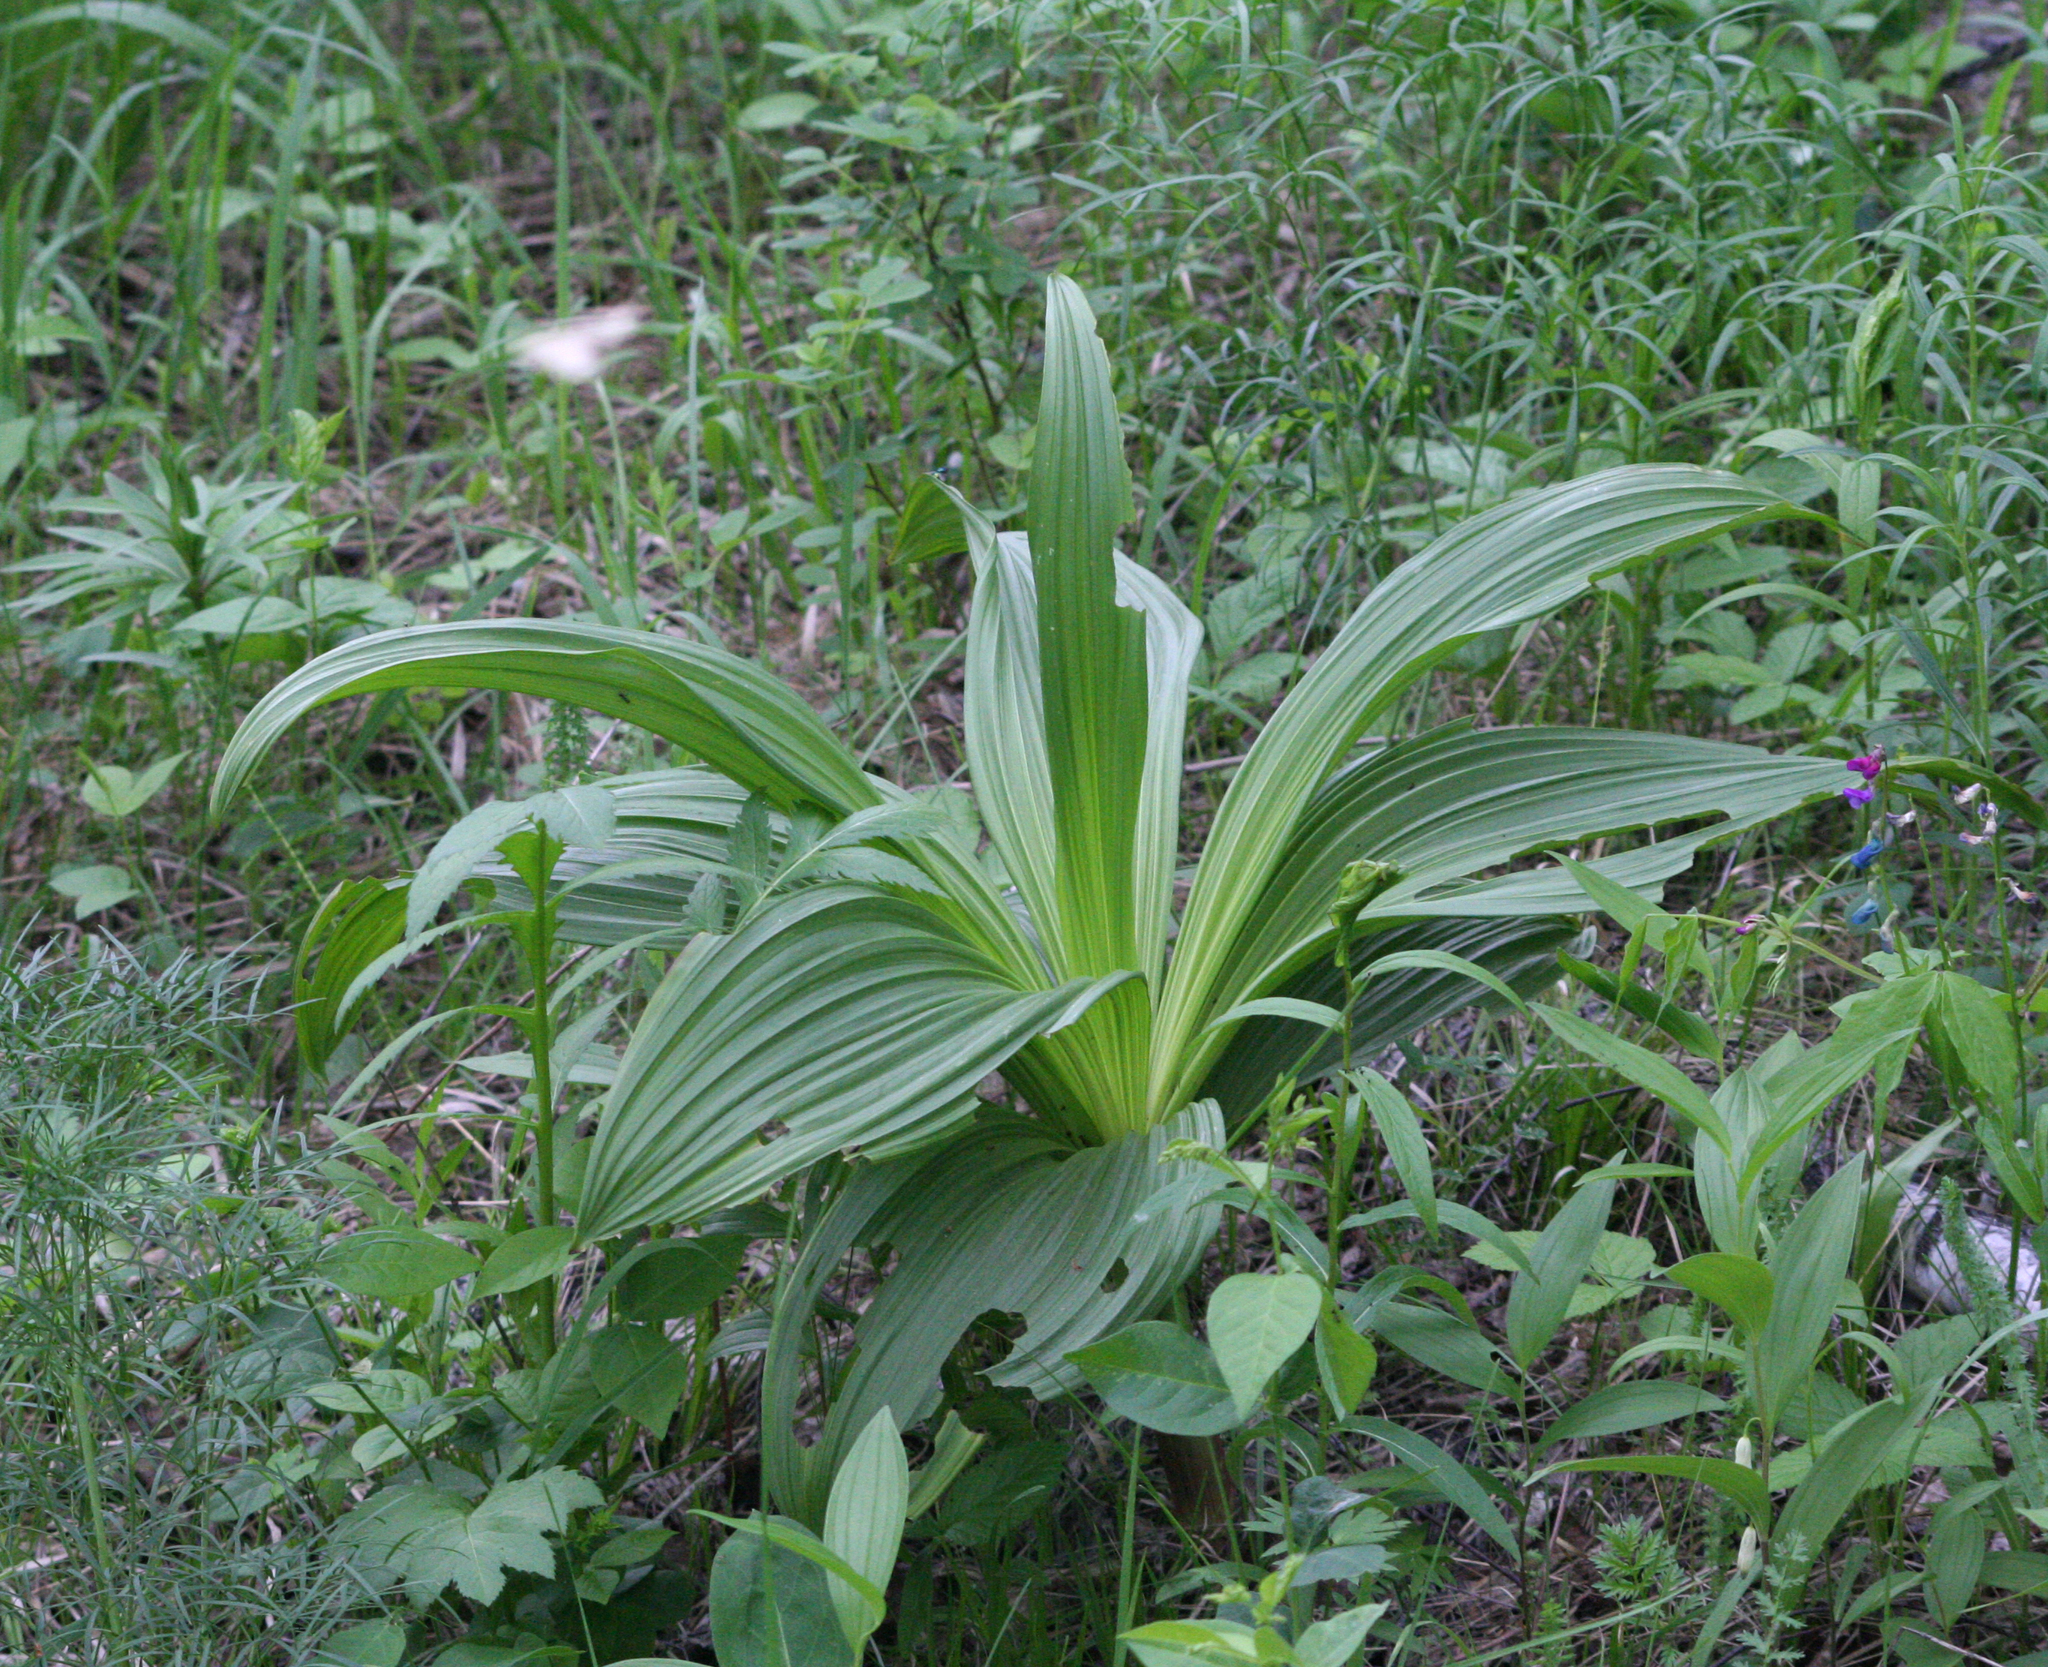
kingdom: Plantae
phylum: Tracheophyta
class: Liliopsida
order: Liliales
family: Melanthiaceae
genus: Veratrum
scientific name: Veratrum nigrum
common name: Black veratrum
